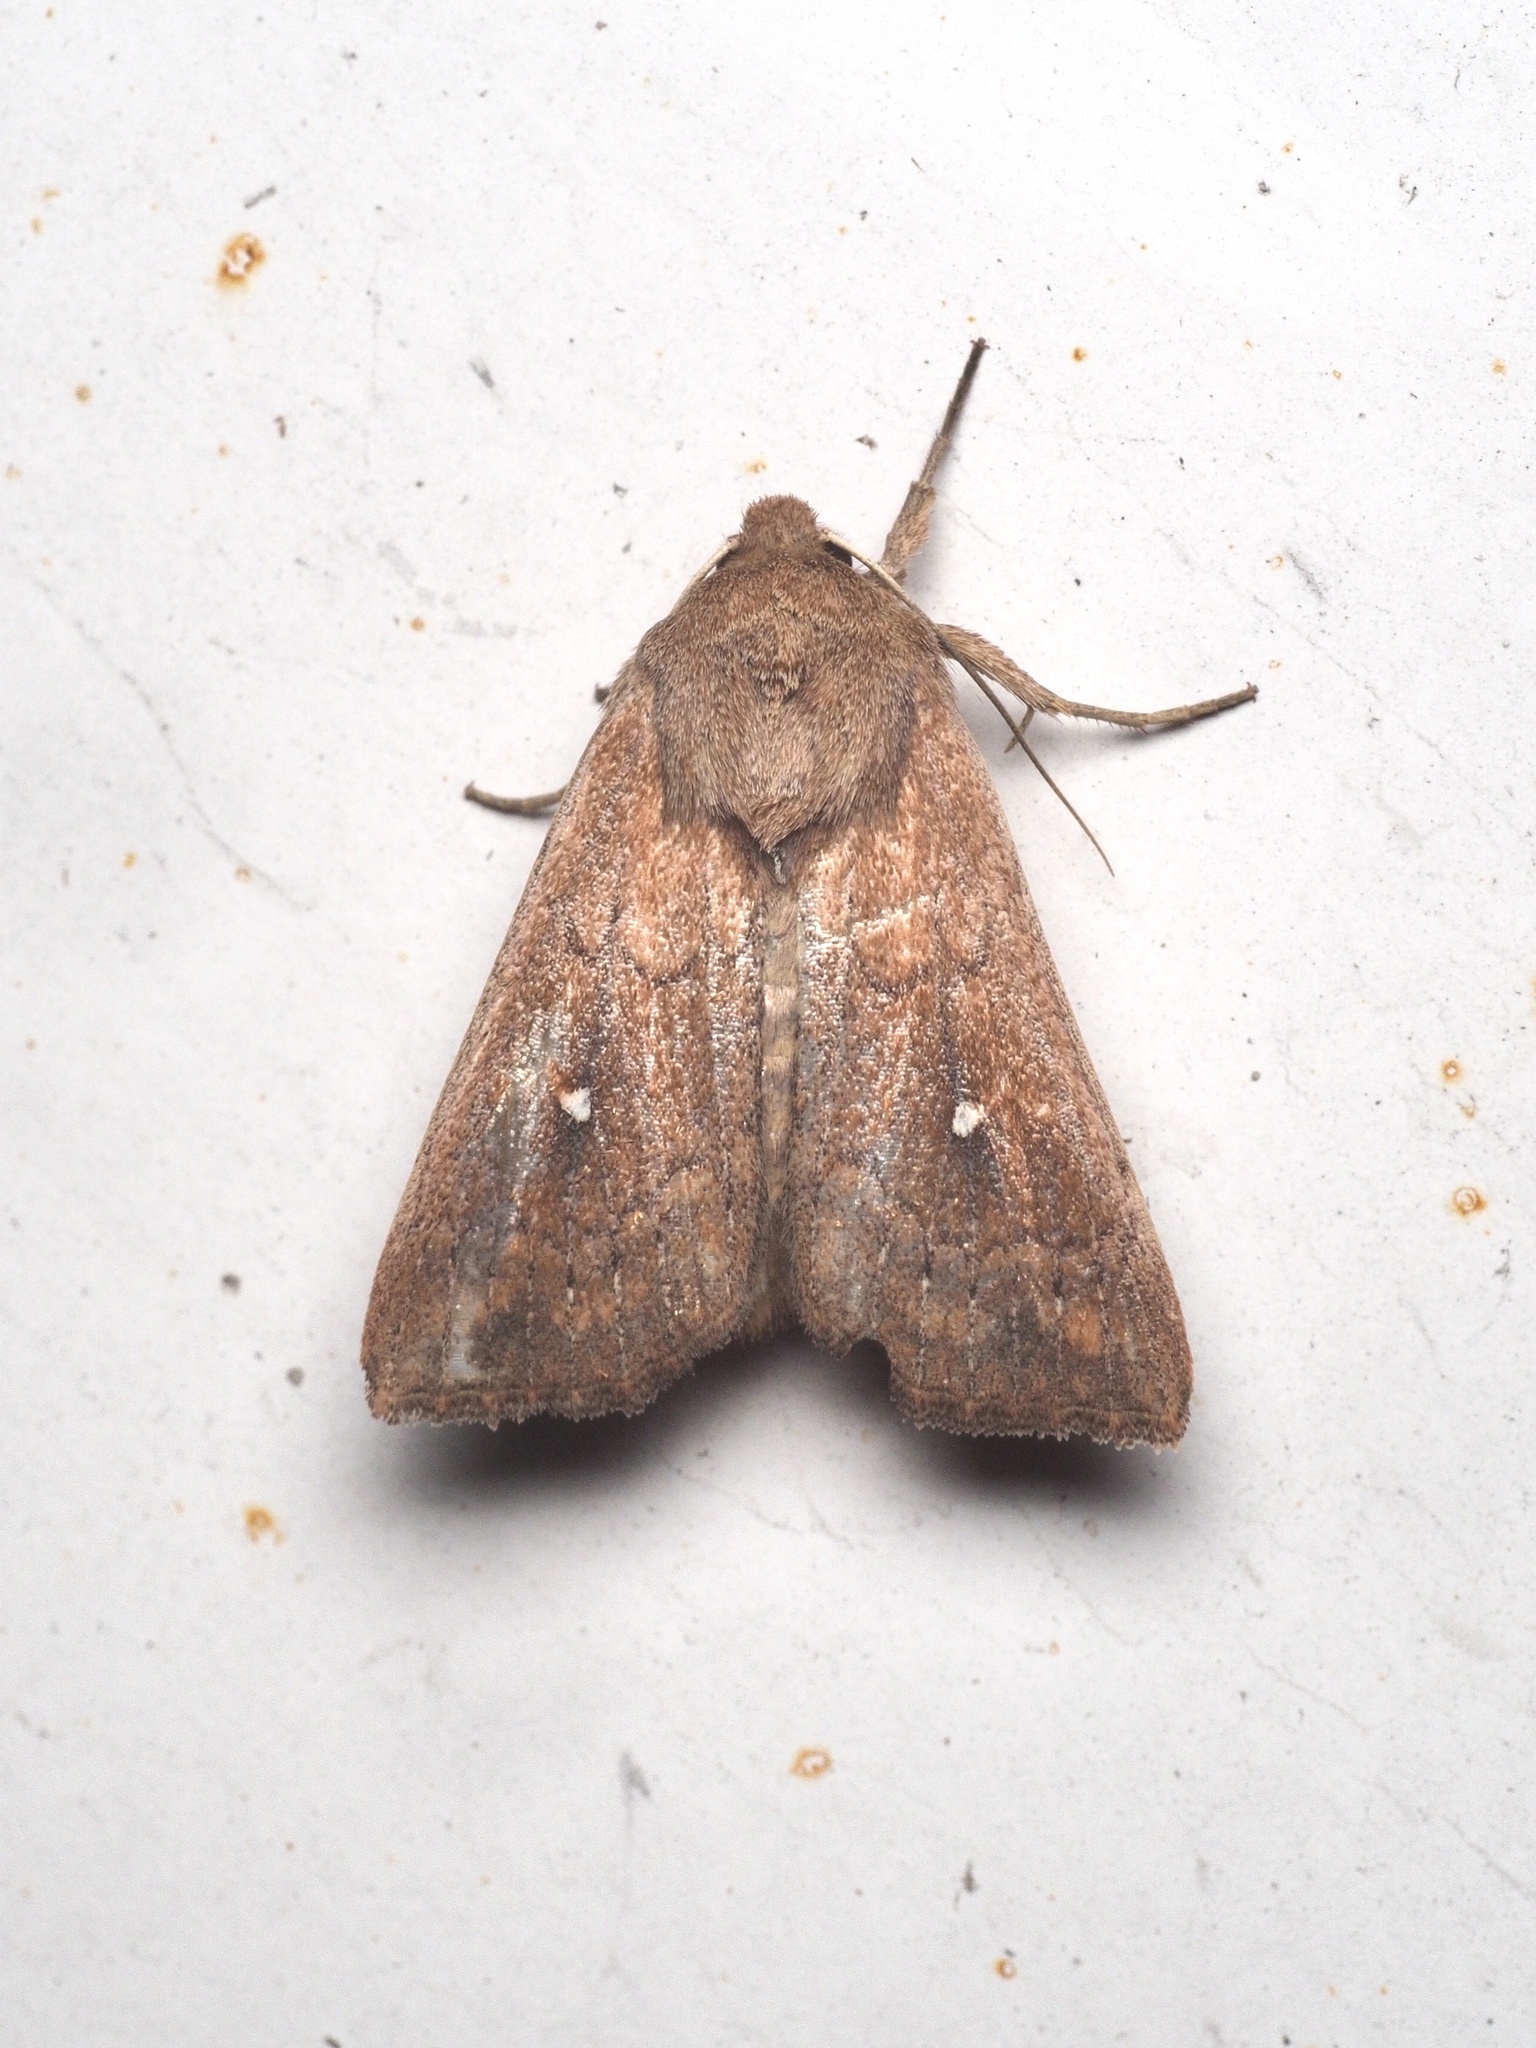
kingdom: Animalia
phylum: Arthropoda
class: Insecta
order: Lepidoptera
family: Noctuidae
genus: Mythimna
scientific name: Mythimna albipuncta
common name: White-point
